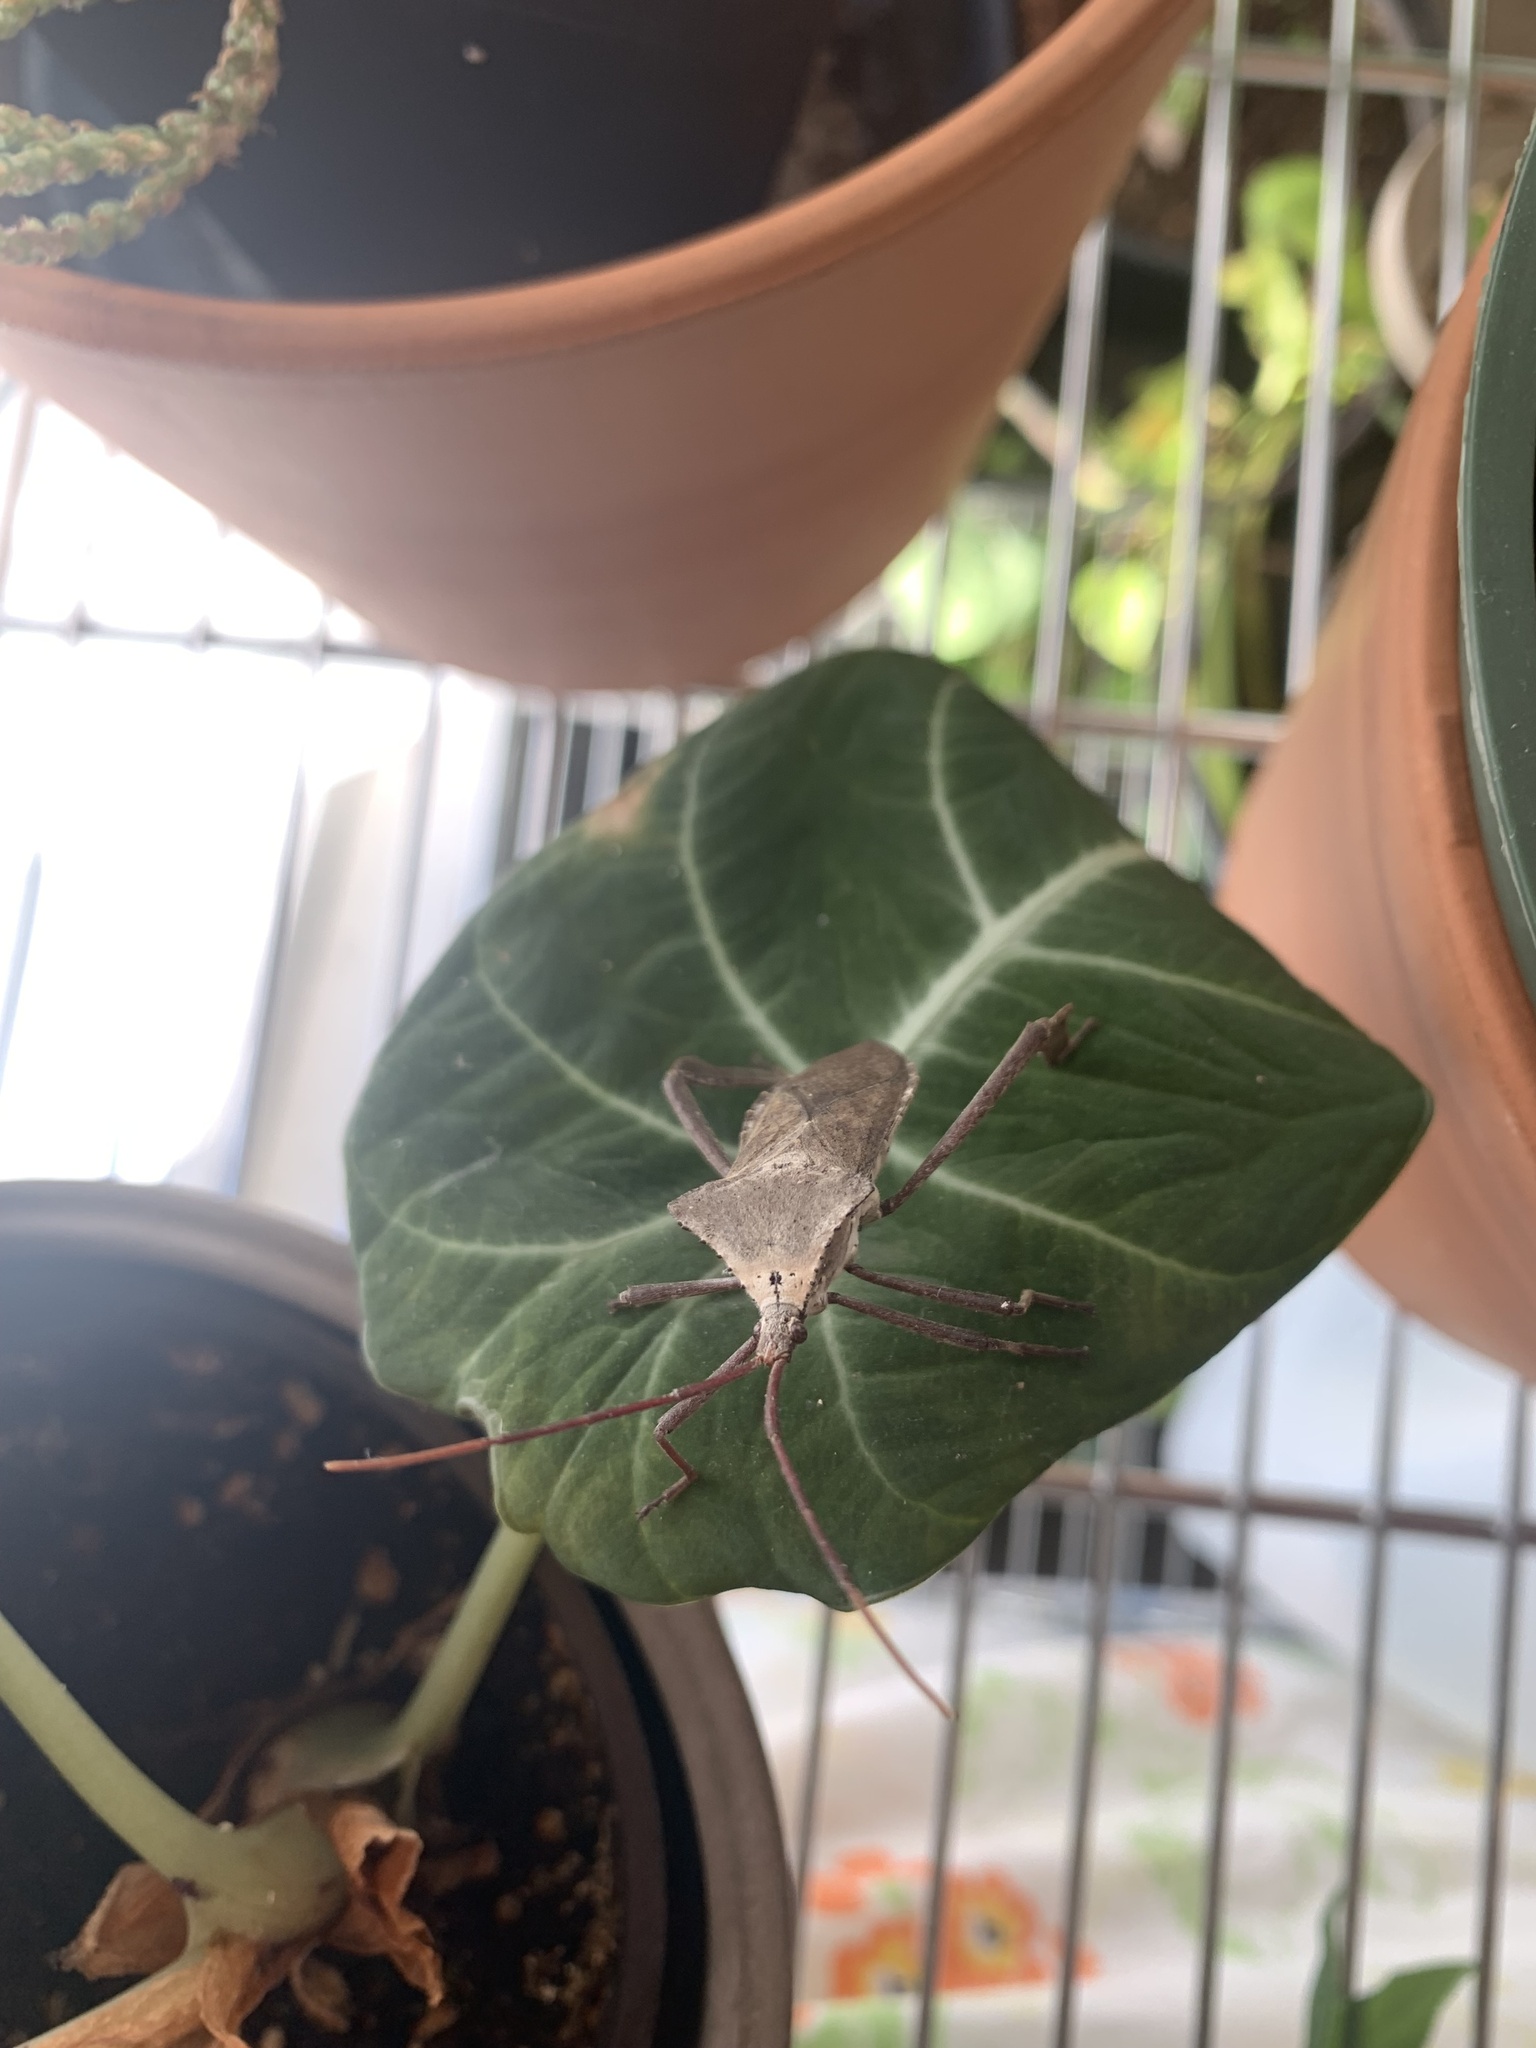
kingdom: Animalia
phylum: Arthropoda
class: Insecta
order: Hemiptera
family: Coreidae
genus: Acanthocephala
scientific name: Acanthocephala declivis
